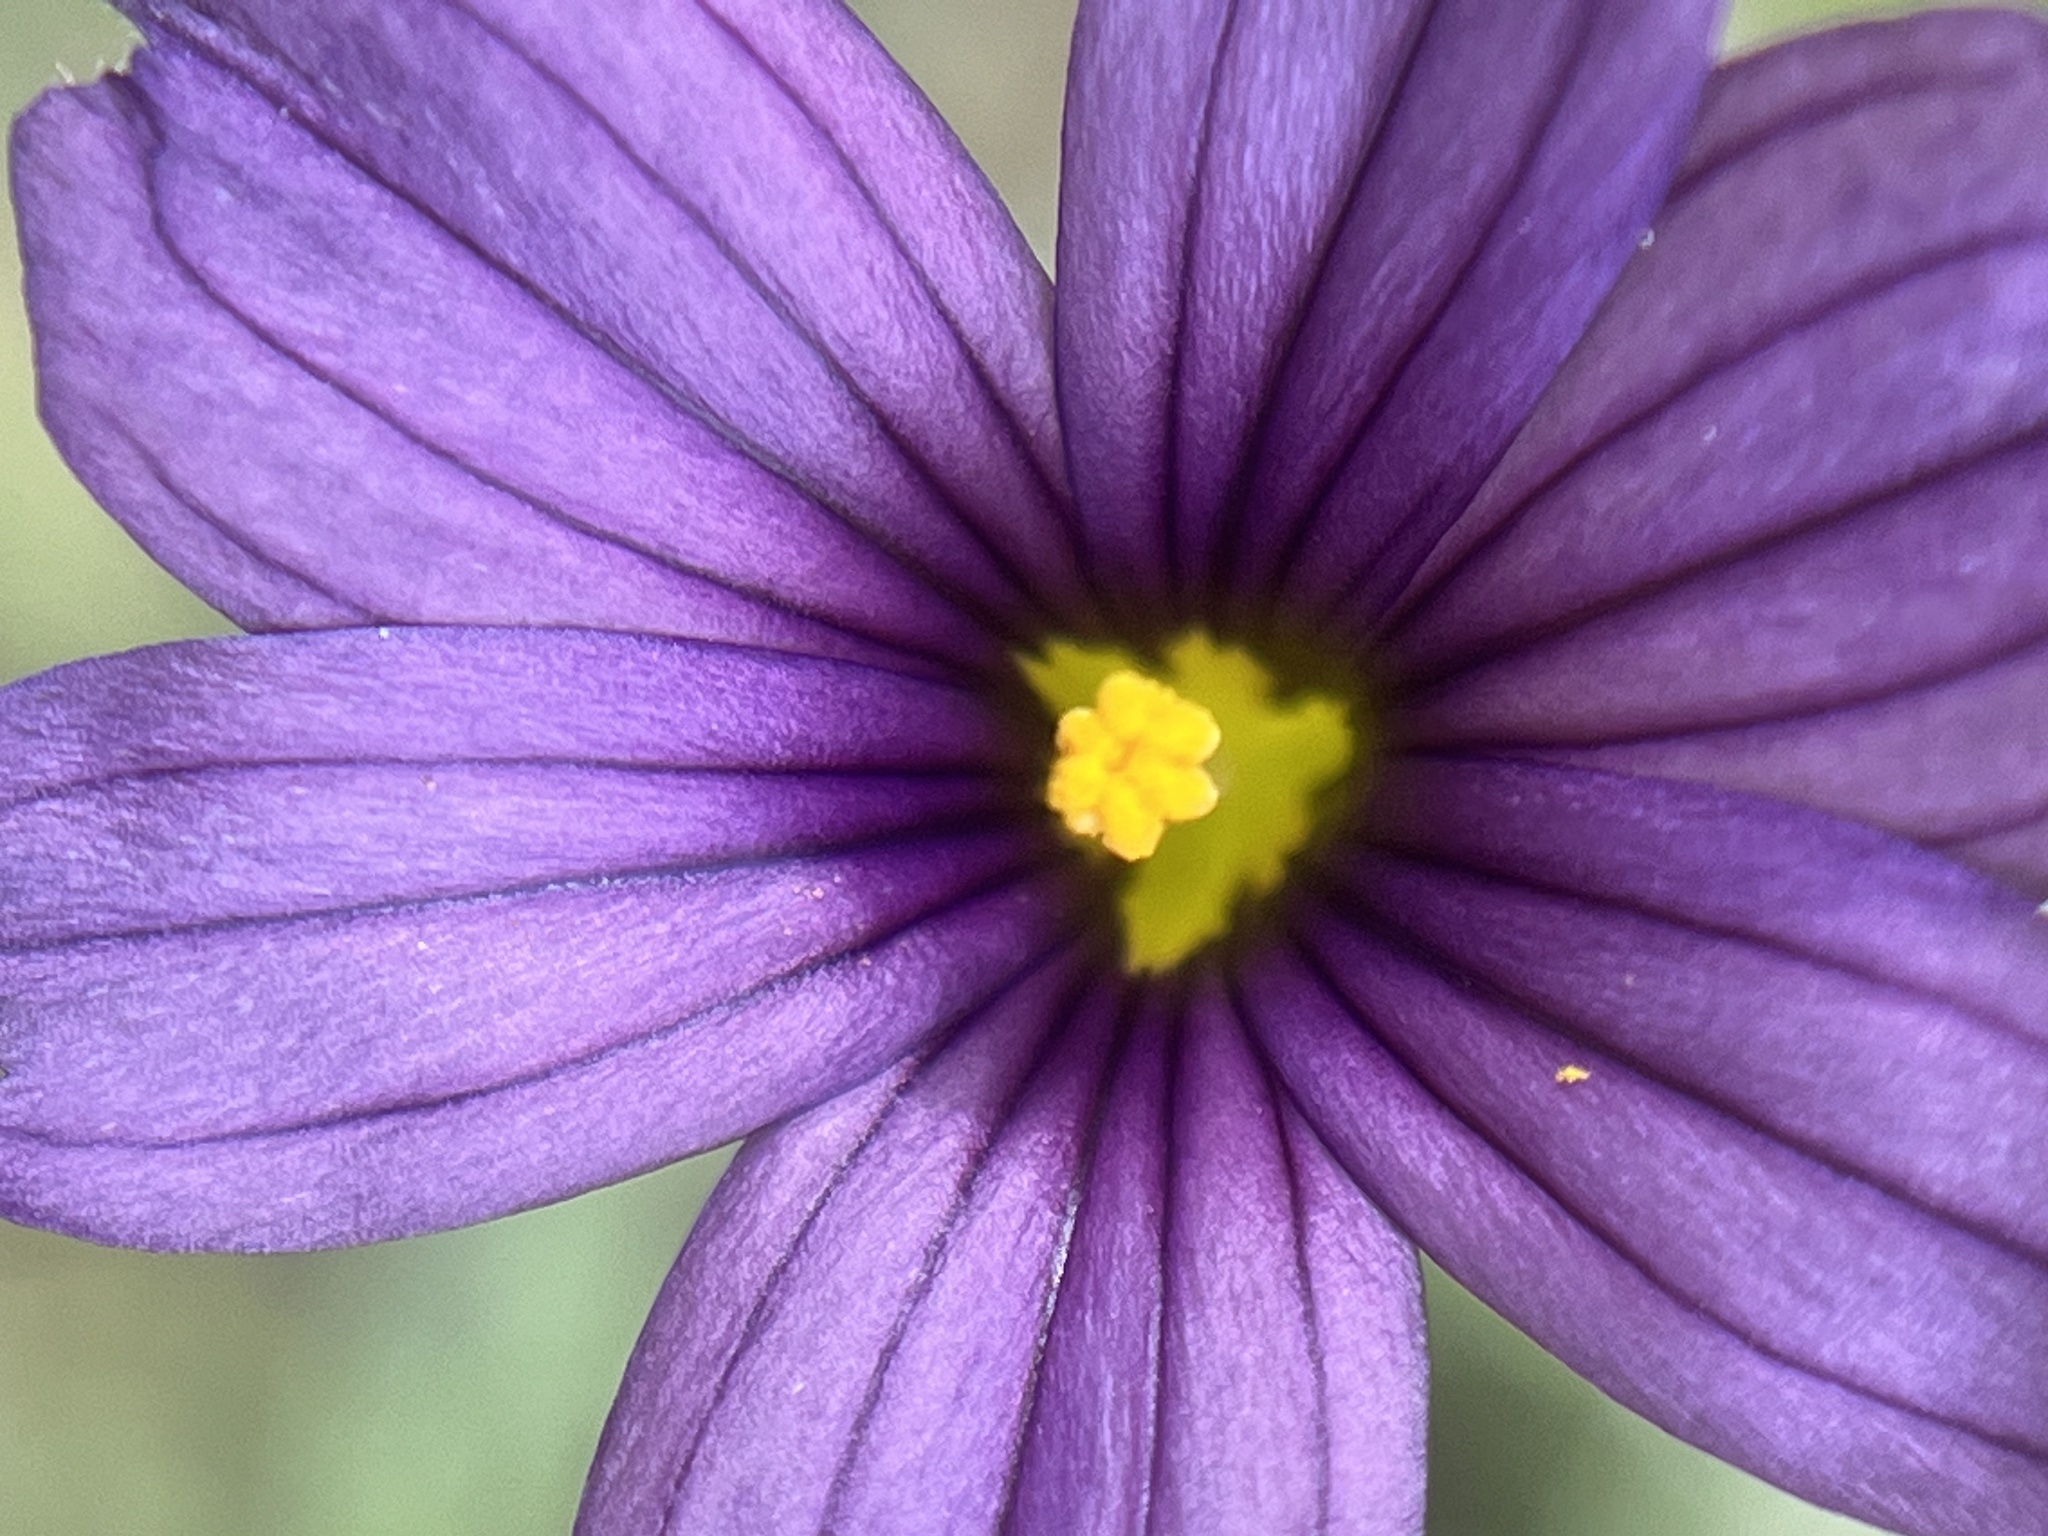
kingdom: Plantae
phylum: Tracheophyta
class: Liliopsida
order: Asparagales
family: Iridaceae
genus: Sisyrinchium
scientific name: Sisyrinchium bellum
